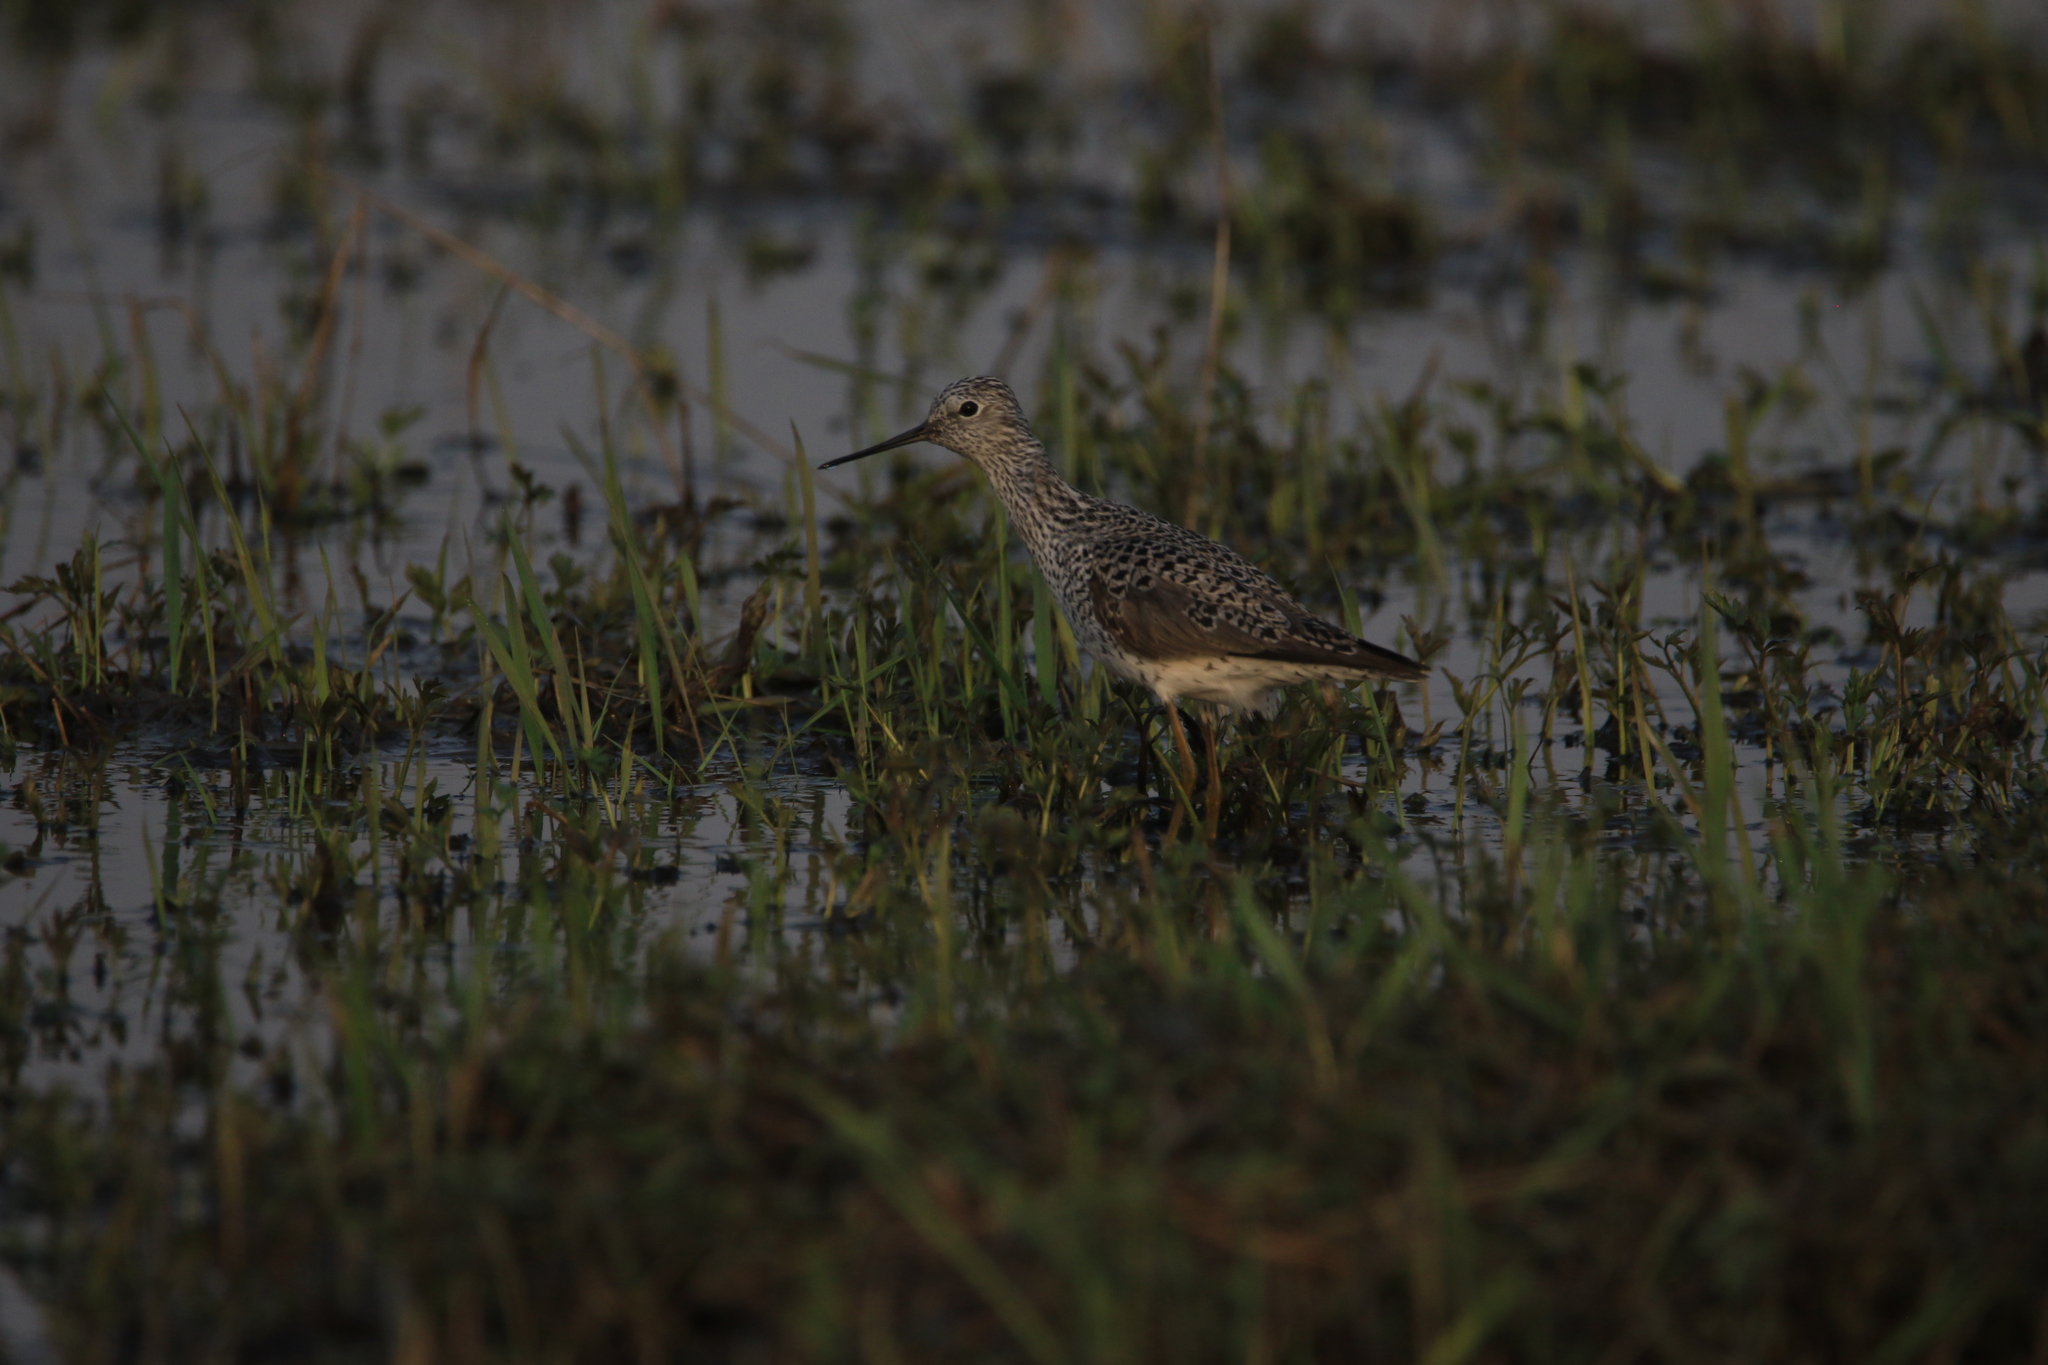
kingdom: Animalia
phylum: Chordata
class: Aves
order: Charadriiformes
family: Scolopacidae
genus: Tringa
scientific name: Tringa stagnatilis
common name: Marsh sandpiper
